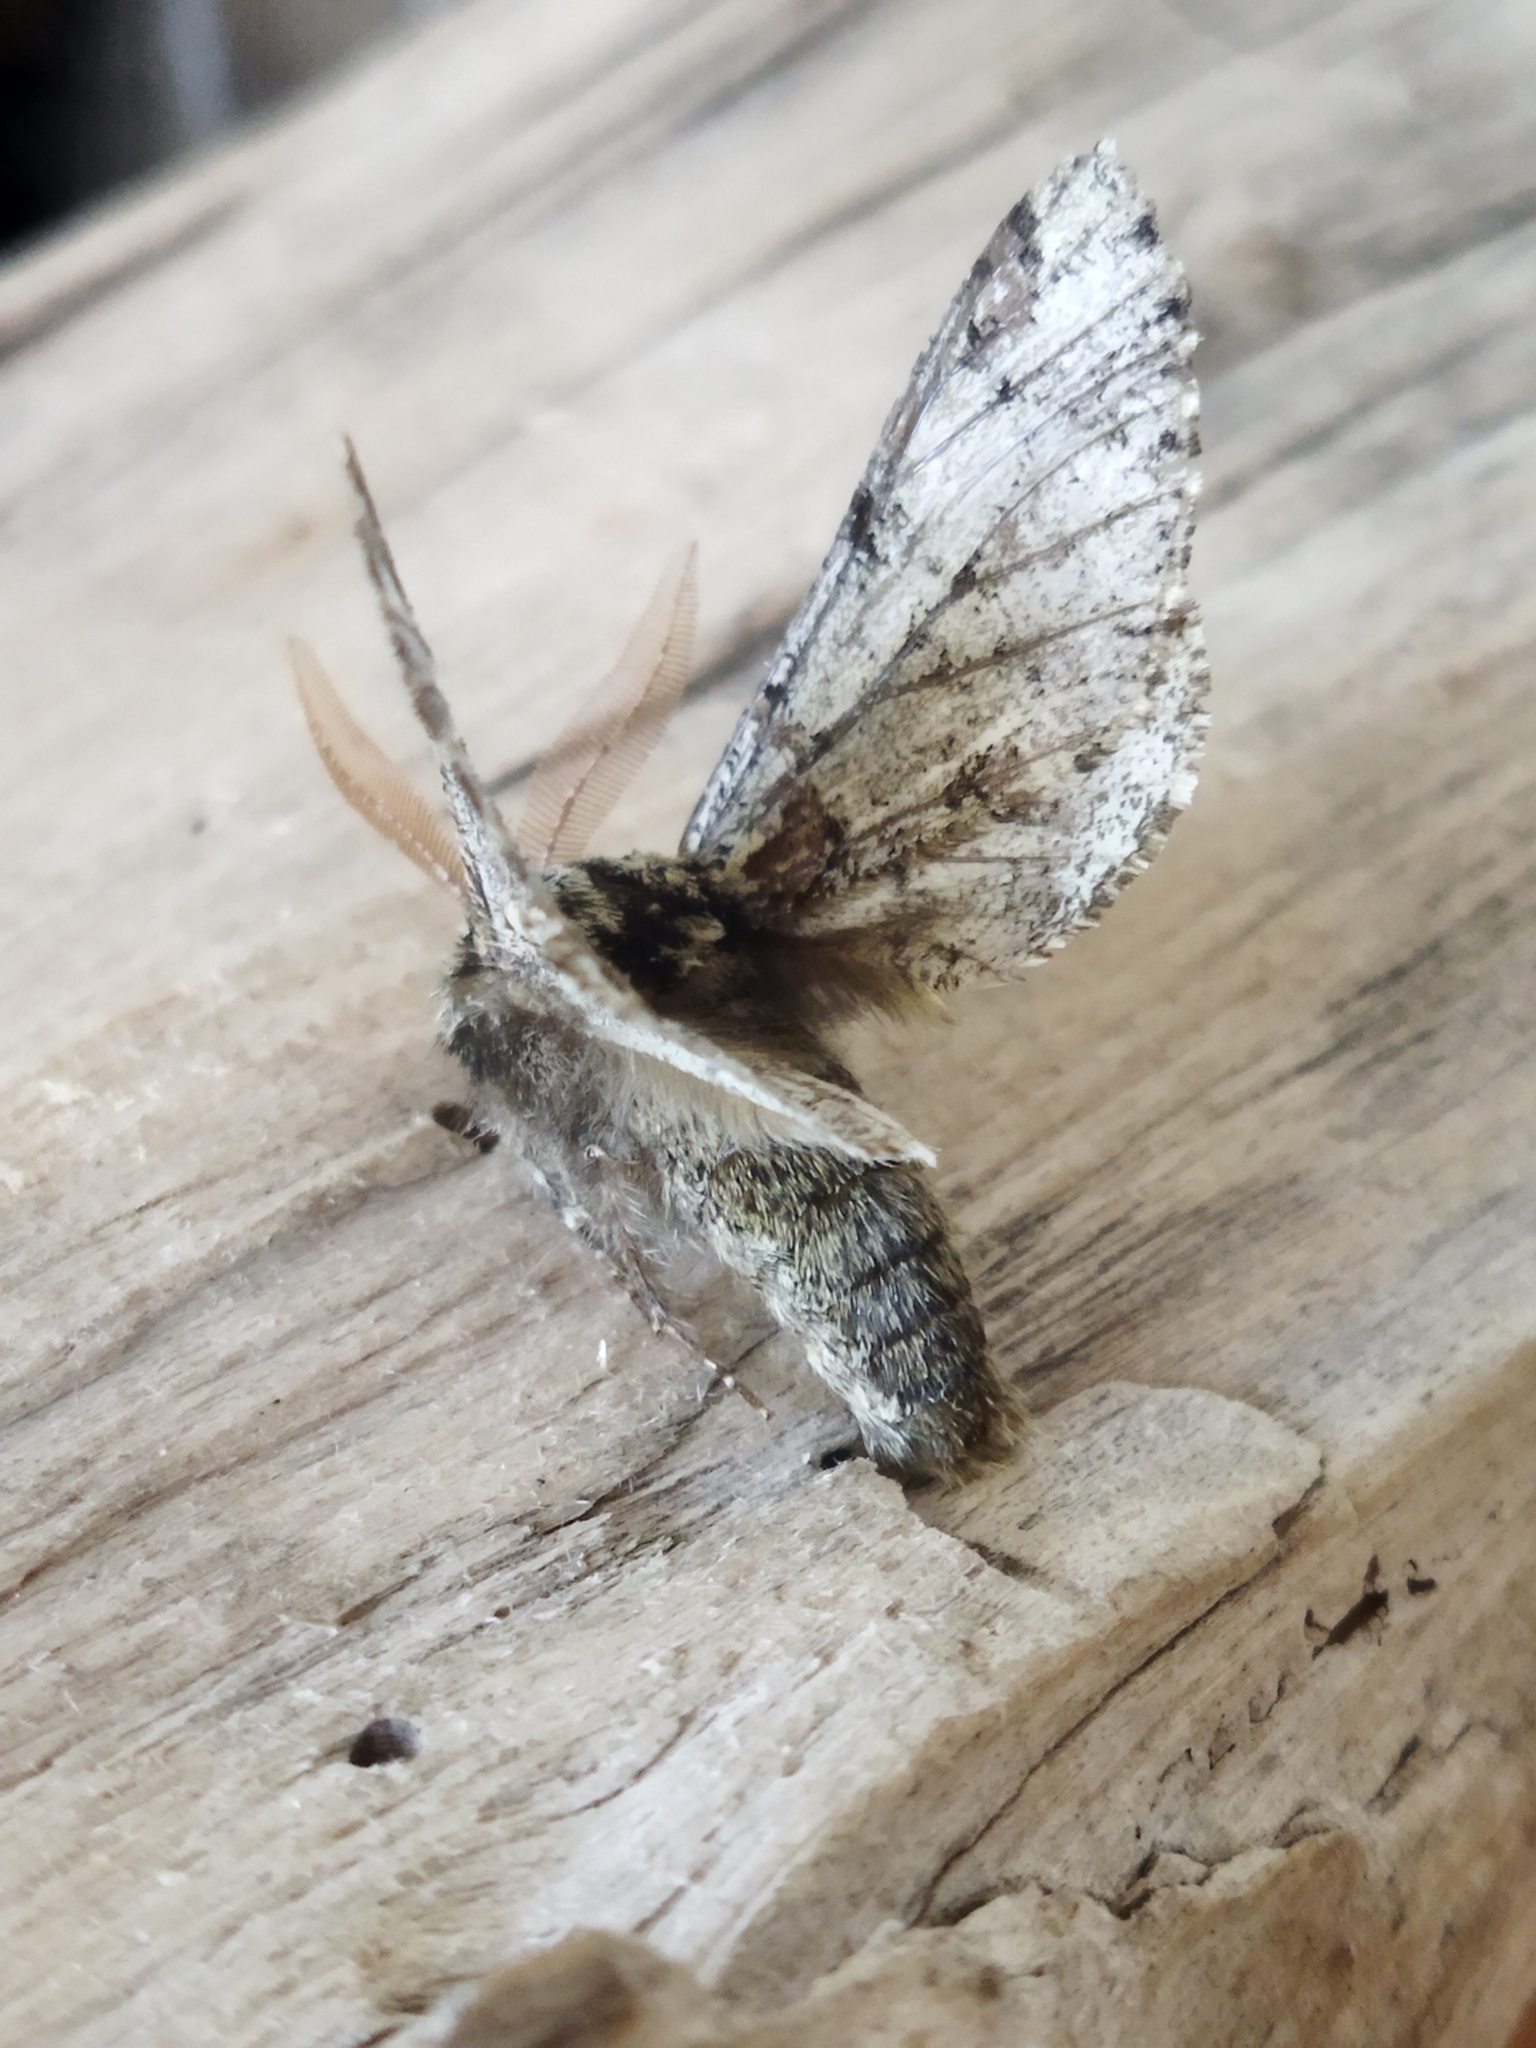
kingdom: Animalia
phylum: Arthropoda
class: Insecta
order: Lepidoptera
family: Geometridae
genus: Biston
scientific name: Biston strataria
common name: Oak beauty
